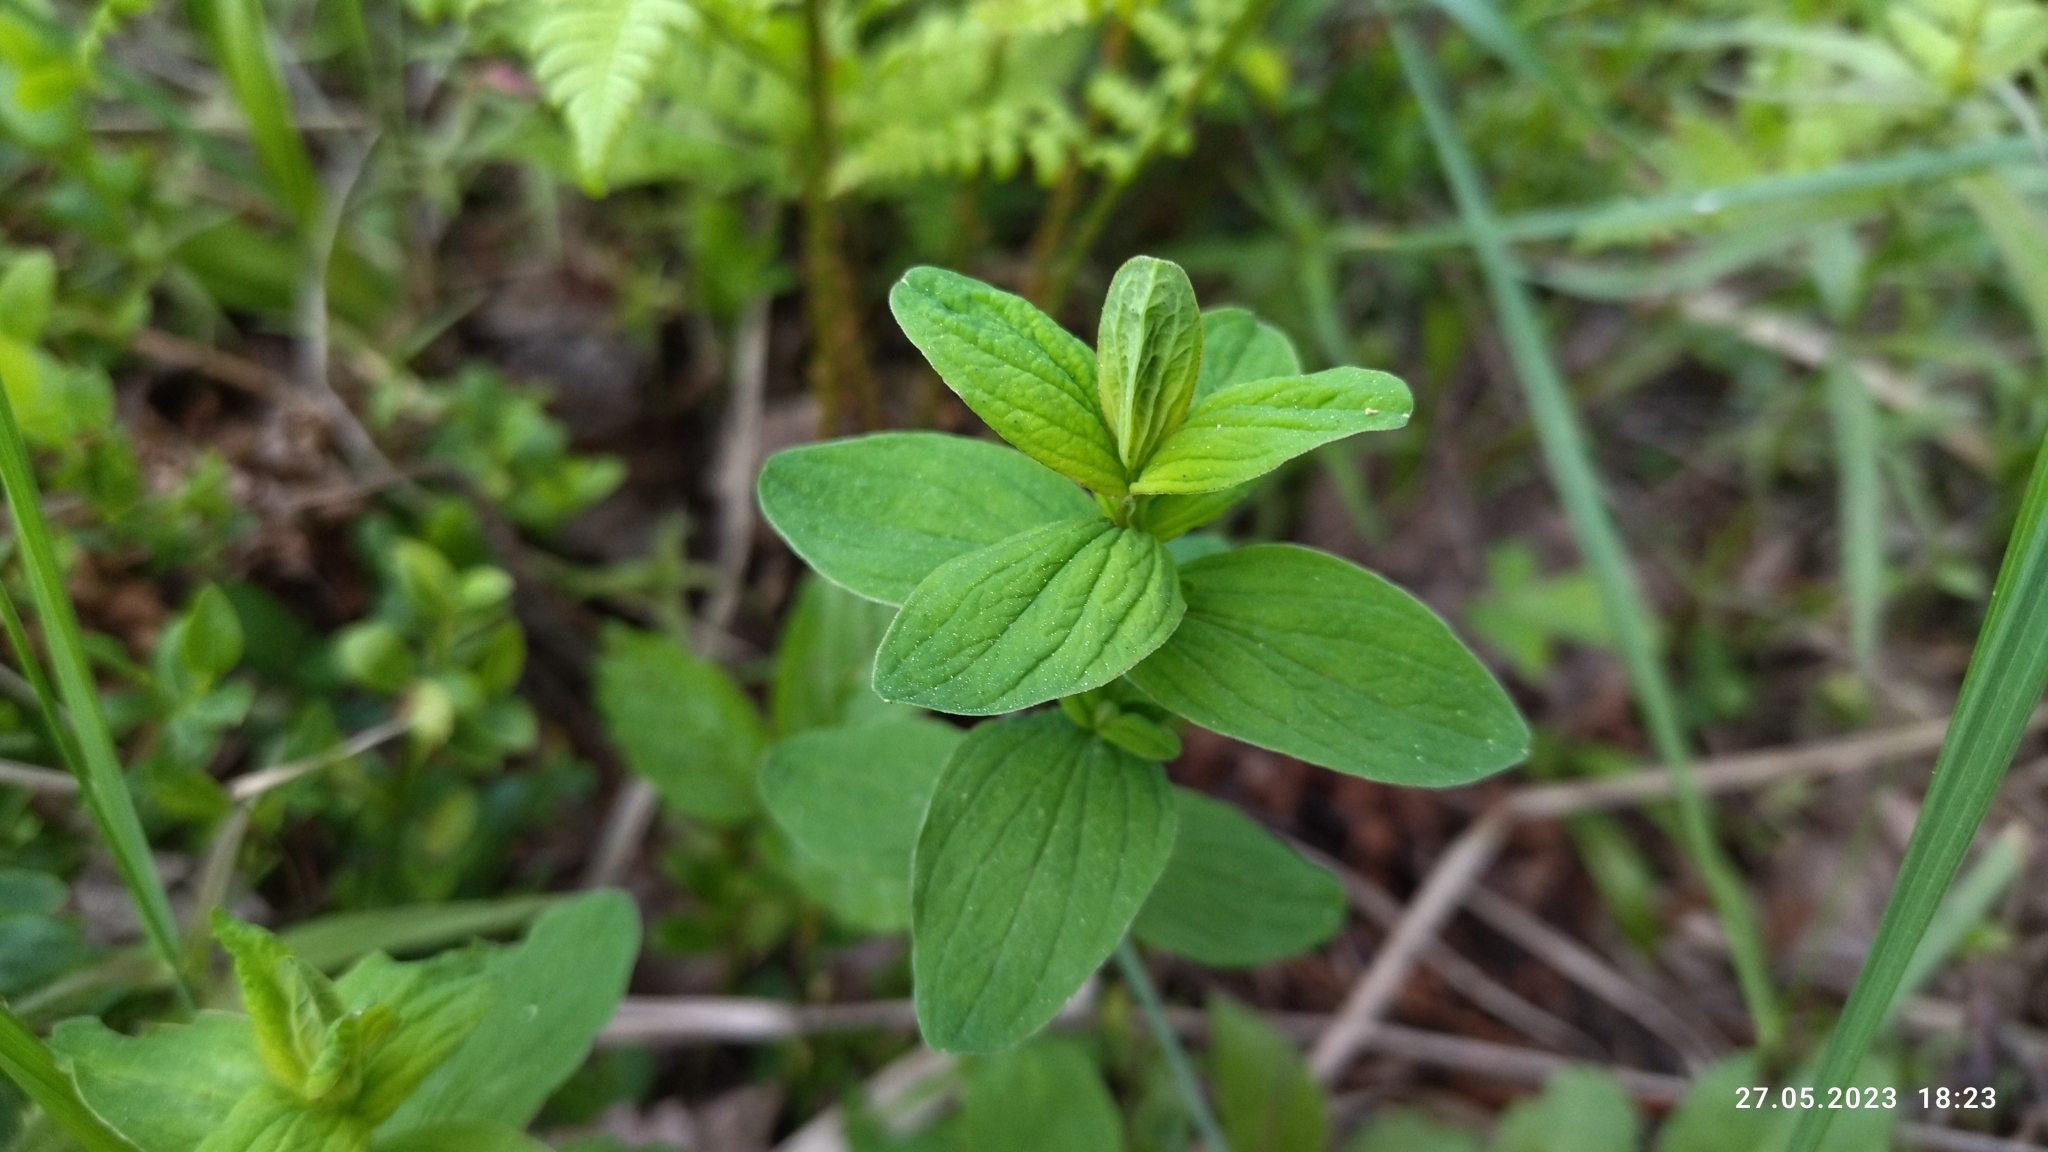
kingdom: Plantae
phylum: Tracheophyta
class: Magnoliopsida
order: Malpighiales
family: Hypericaceae
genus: Hypericum
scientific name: Hypericum maculatum
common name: Imperforate st. john's-wort
